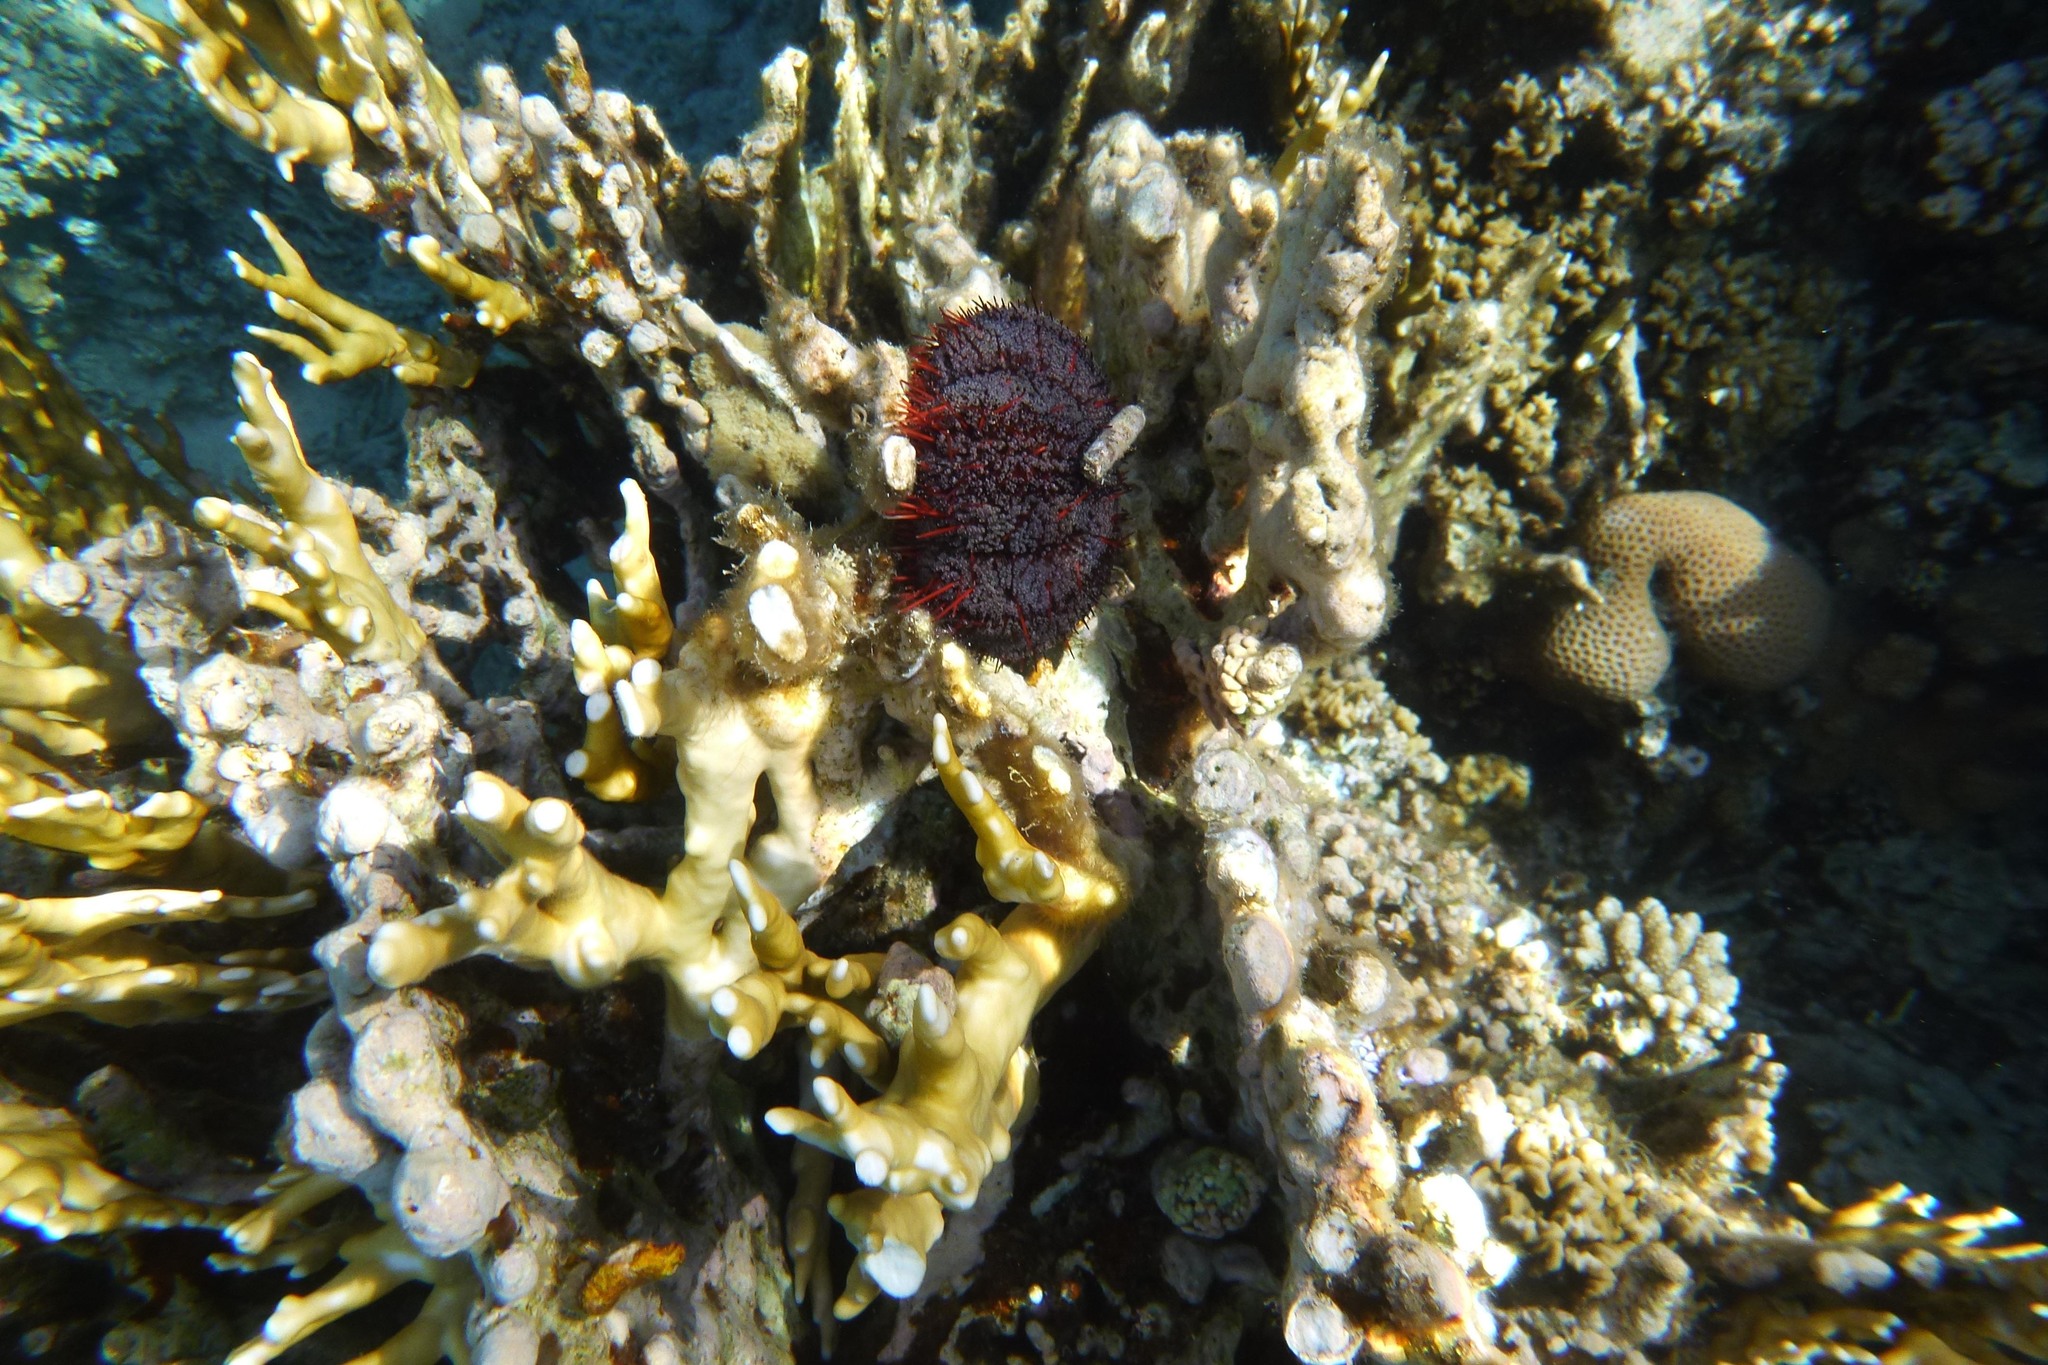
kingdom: Animalia
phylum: Echinodermata
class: Echinoidea
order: Camarodonta
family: Toxopneustidae
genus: Tripneustes
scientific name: Tripneustes gratilla
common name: Bischofsmützenseeigel
